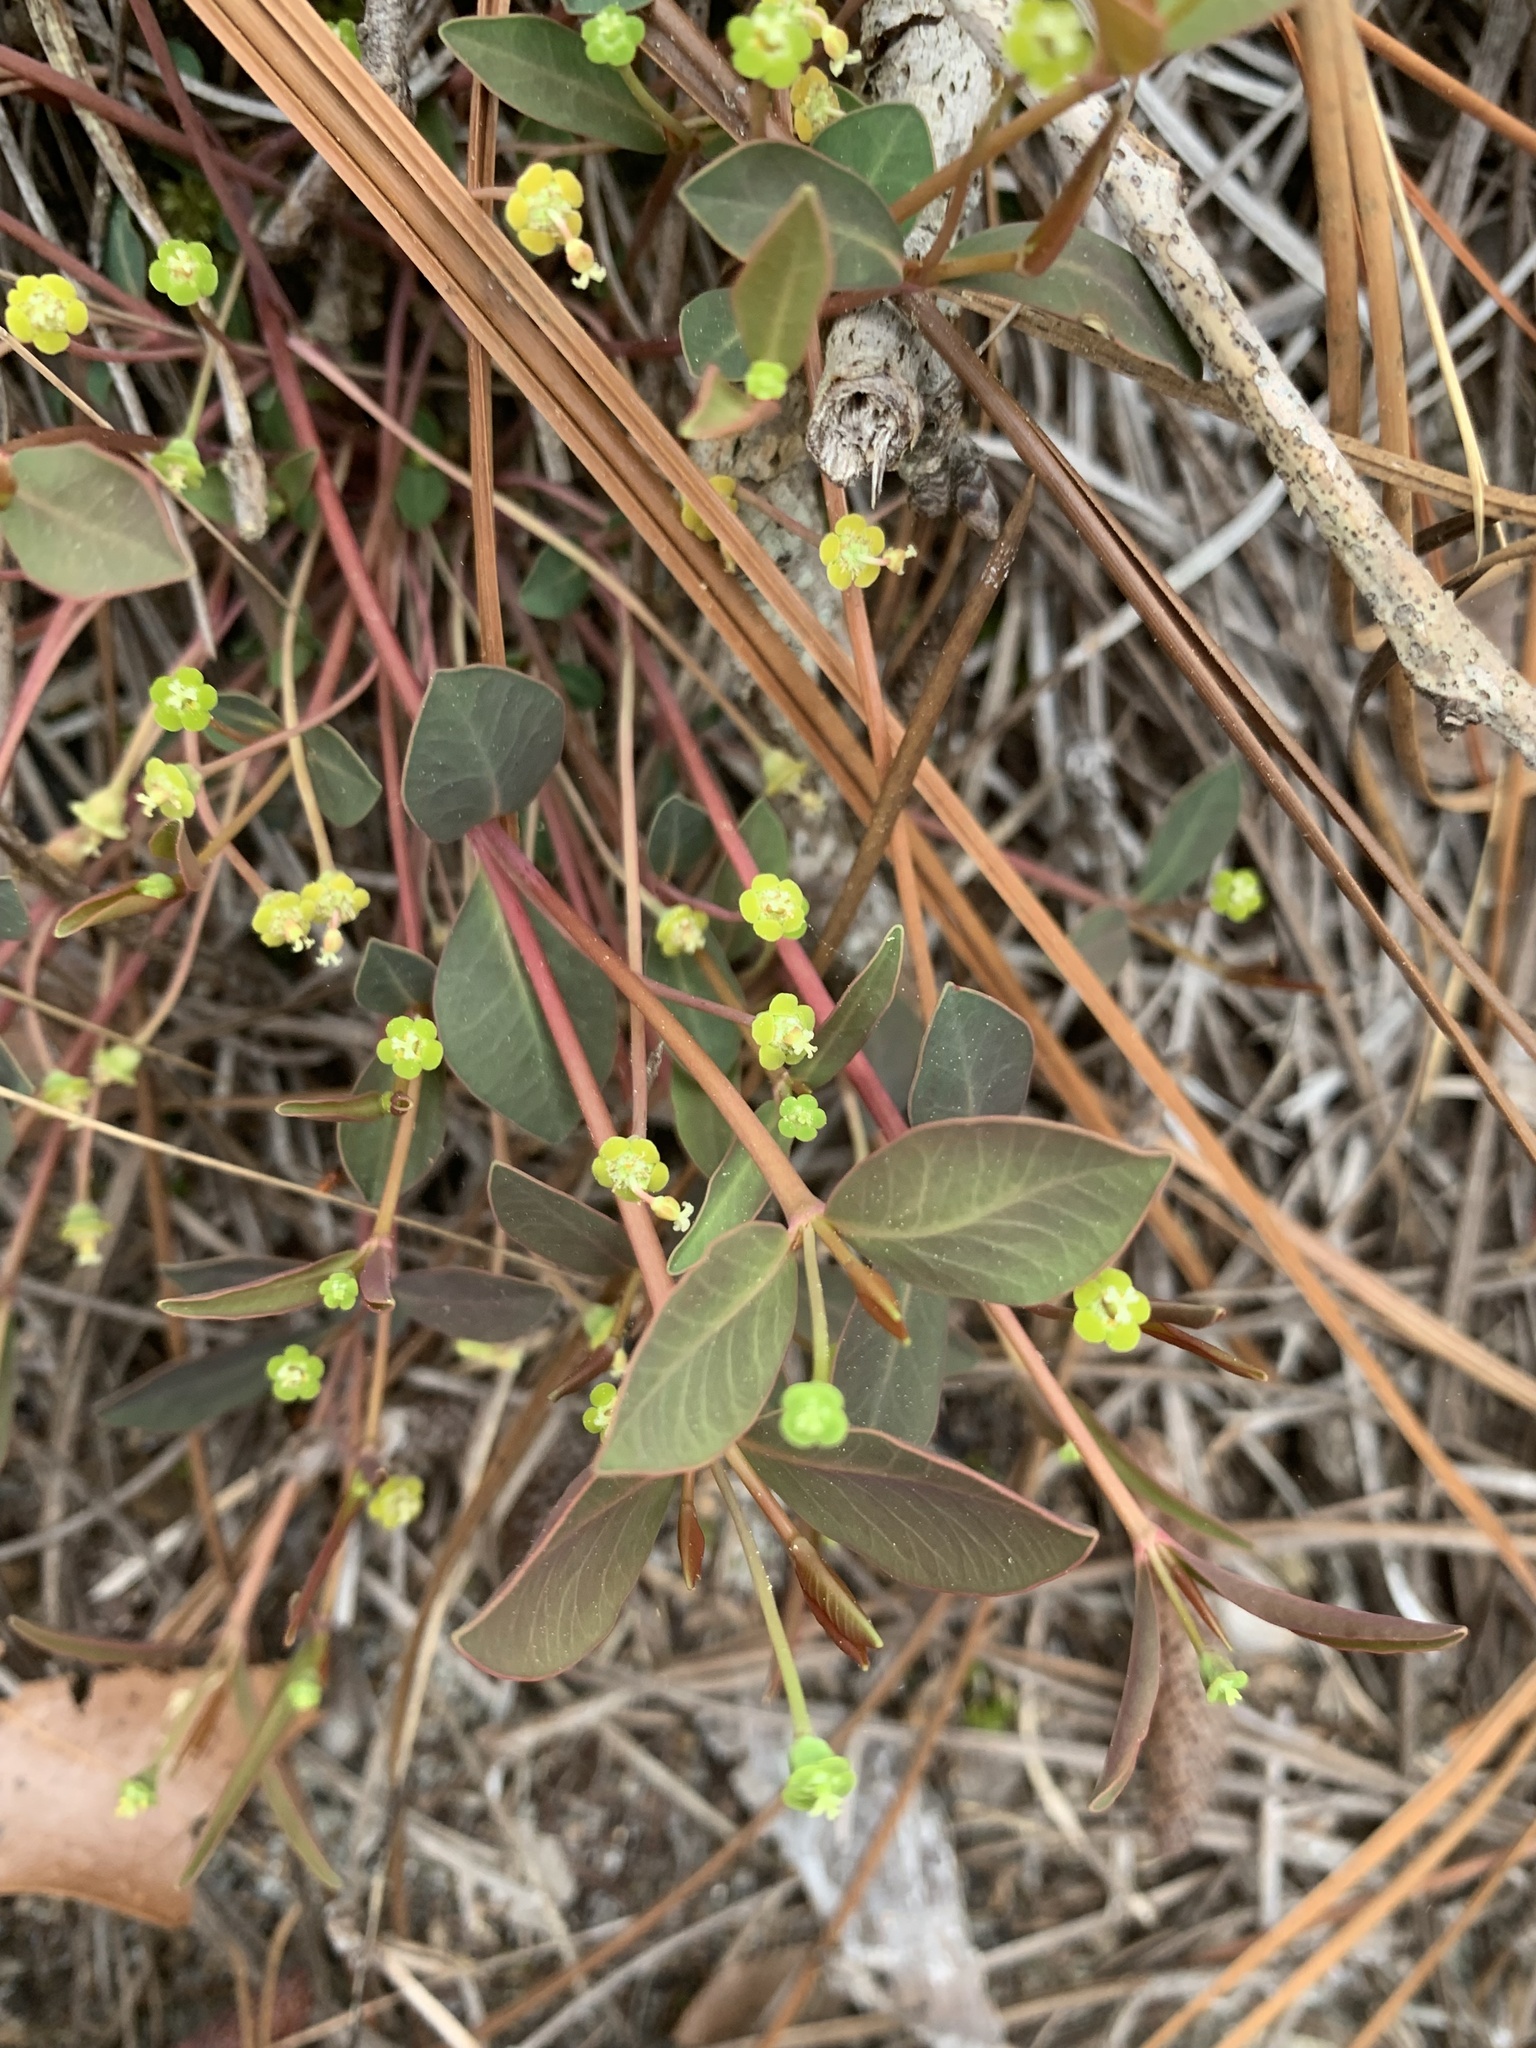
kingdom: Plantae
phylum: Tracheophyta
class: Magnoliopsida
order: Malpighiales
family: Euphorbiaceae
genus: Euphorbia
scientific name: Euphorbia ipecacuanhae
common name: Carolina ipecac
